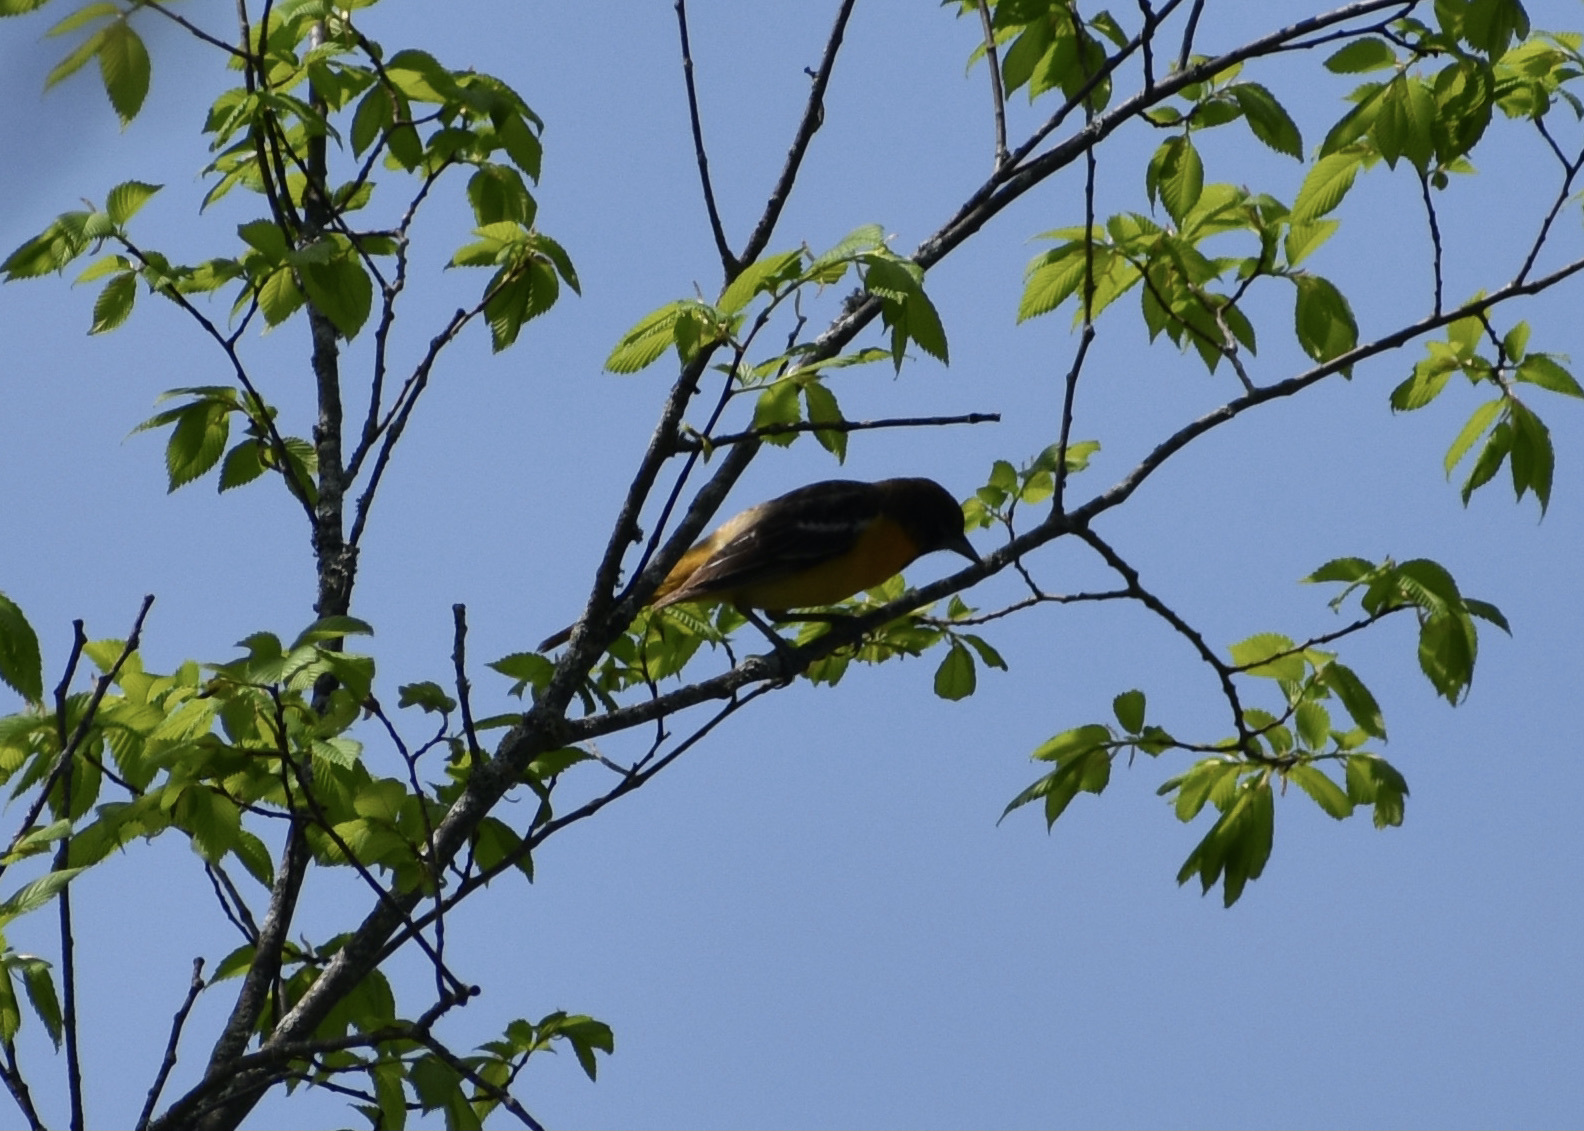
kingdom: Animalia
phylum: Chordata
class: Aves
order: Passeriformes
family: Icteridae
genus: Icterus
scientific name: Icterus galbula
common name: Baltimore oriole
